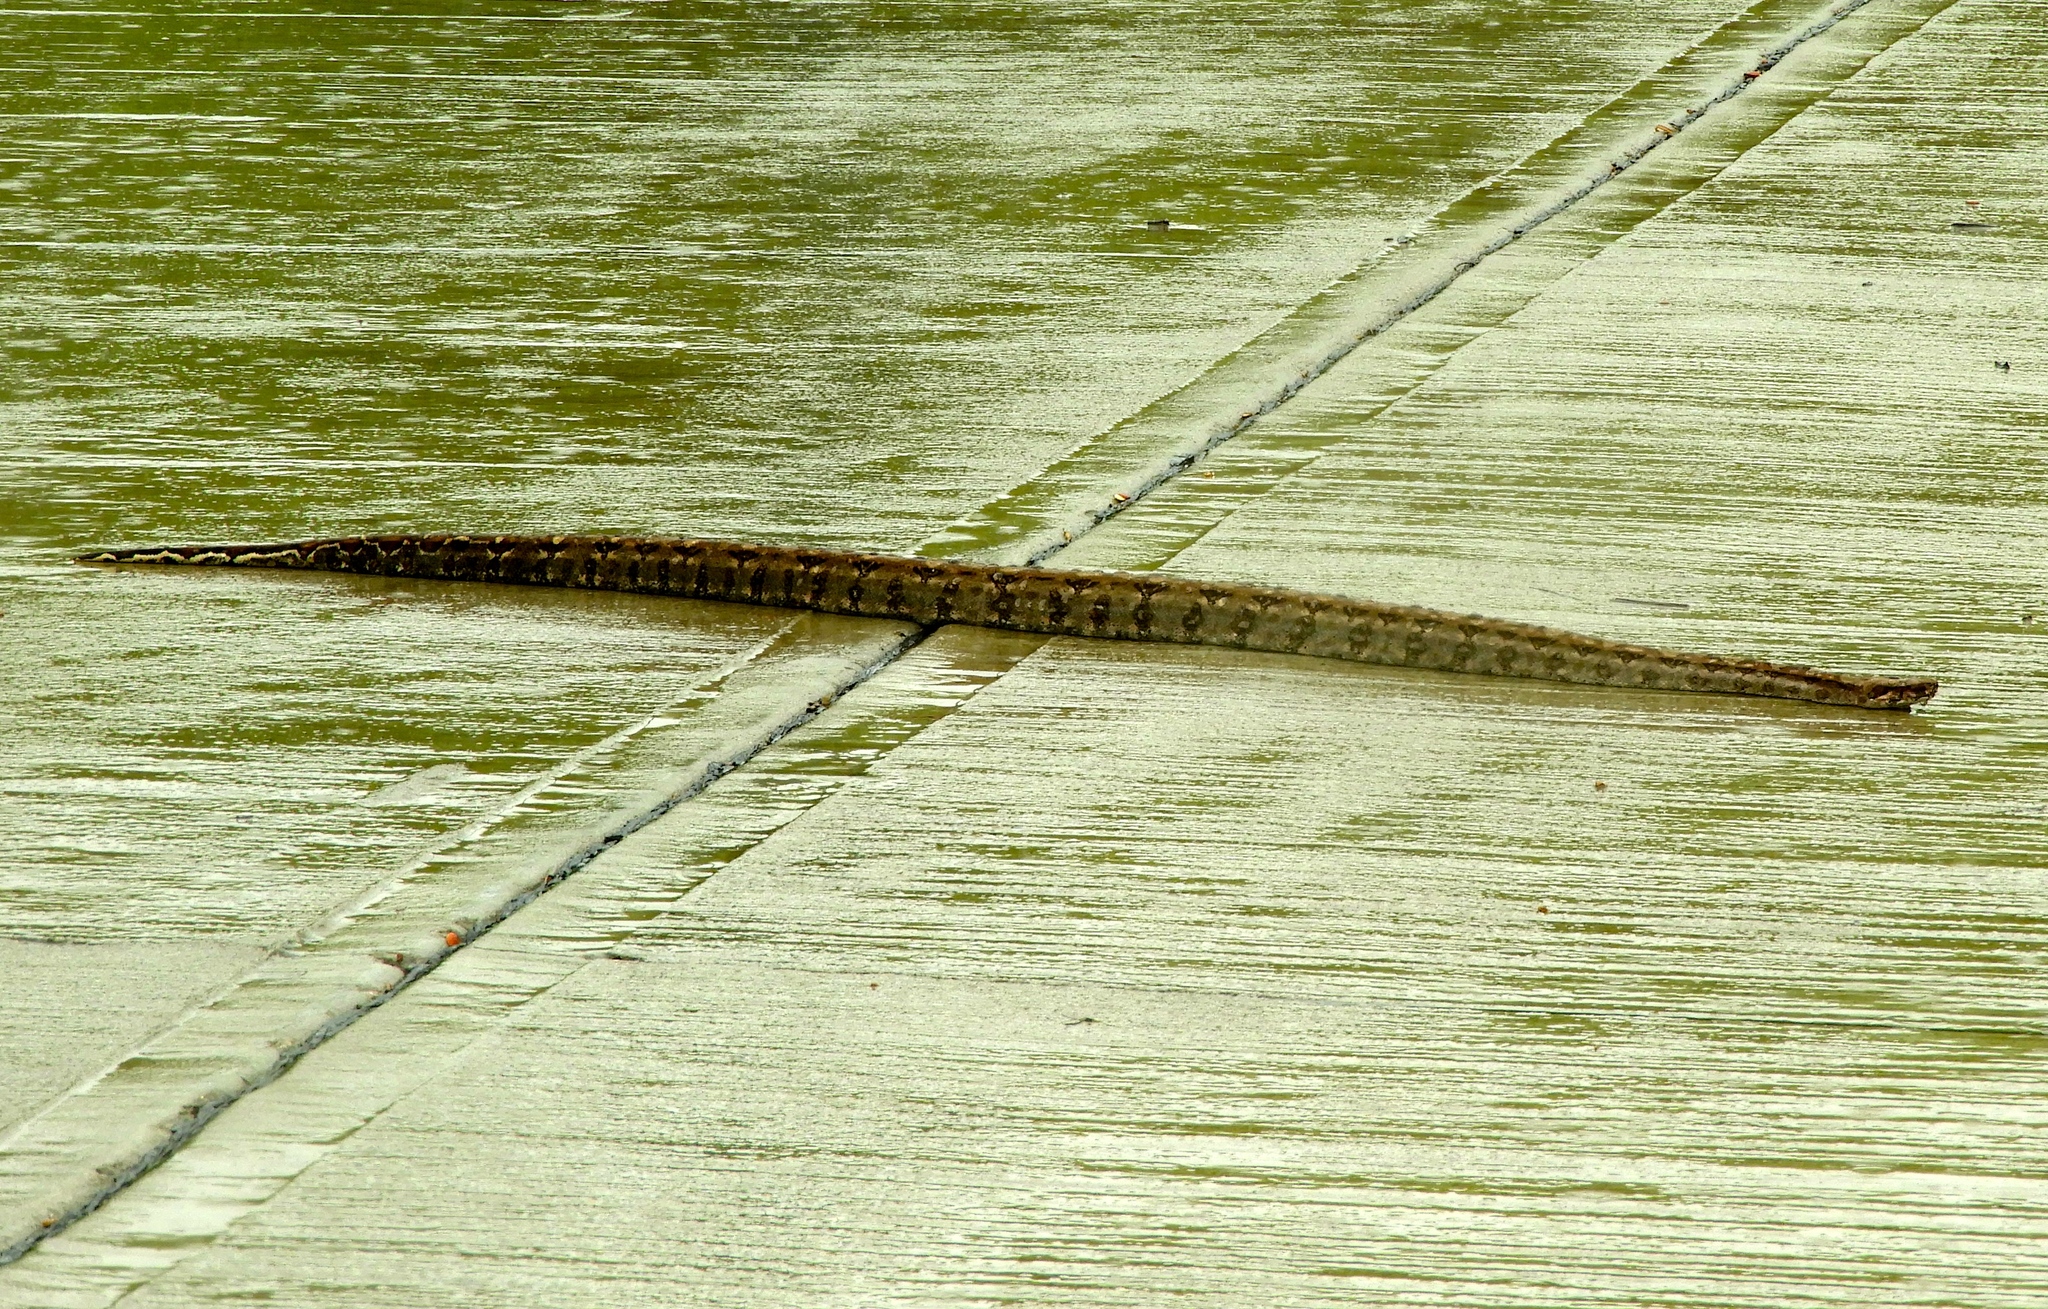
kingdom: Animalia
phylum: Chordata
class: Squamata
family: Boidae
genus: Boa
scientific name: Boa
